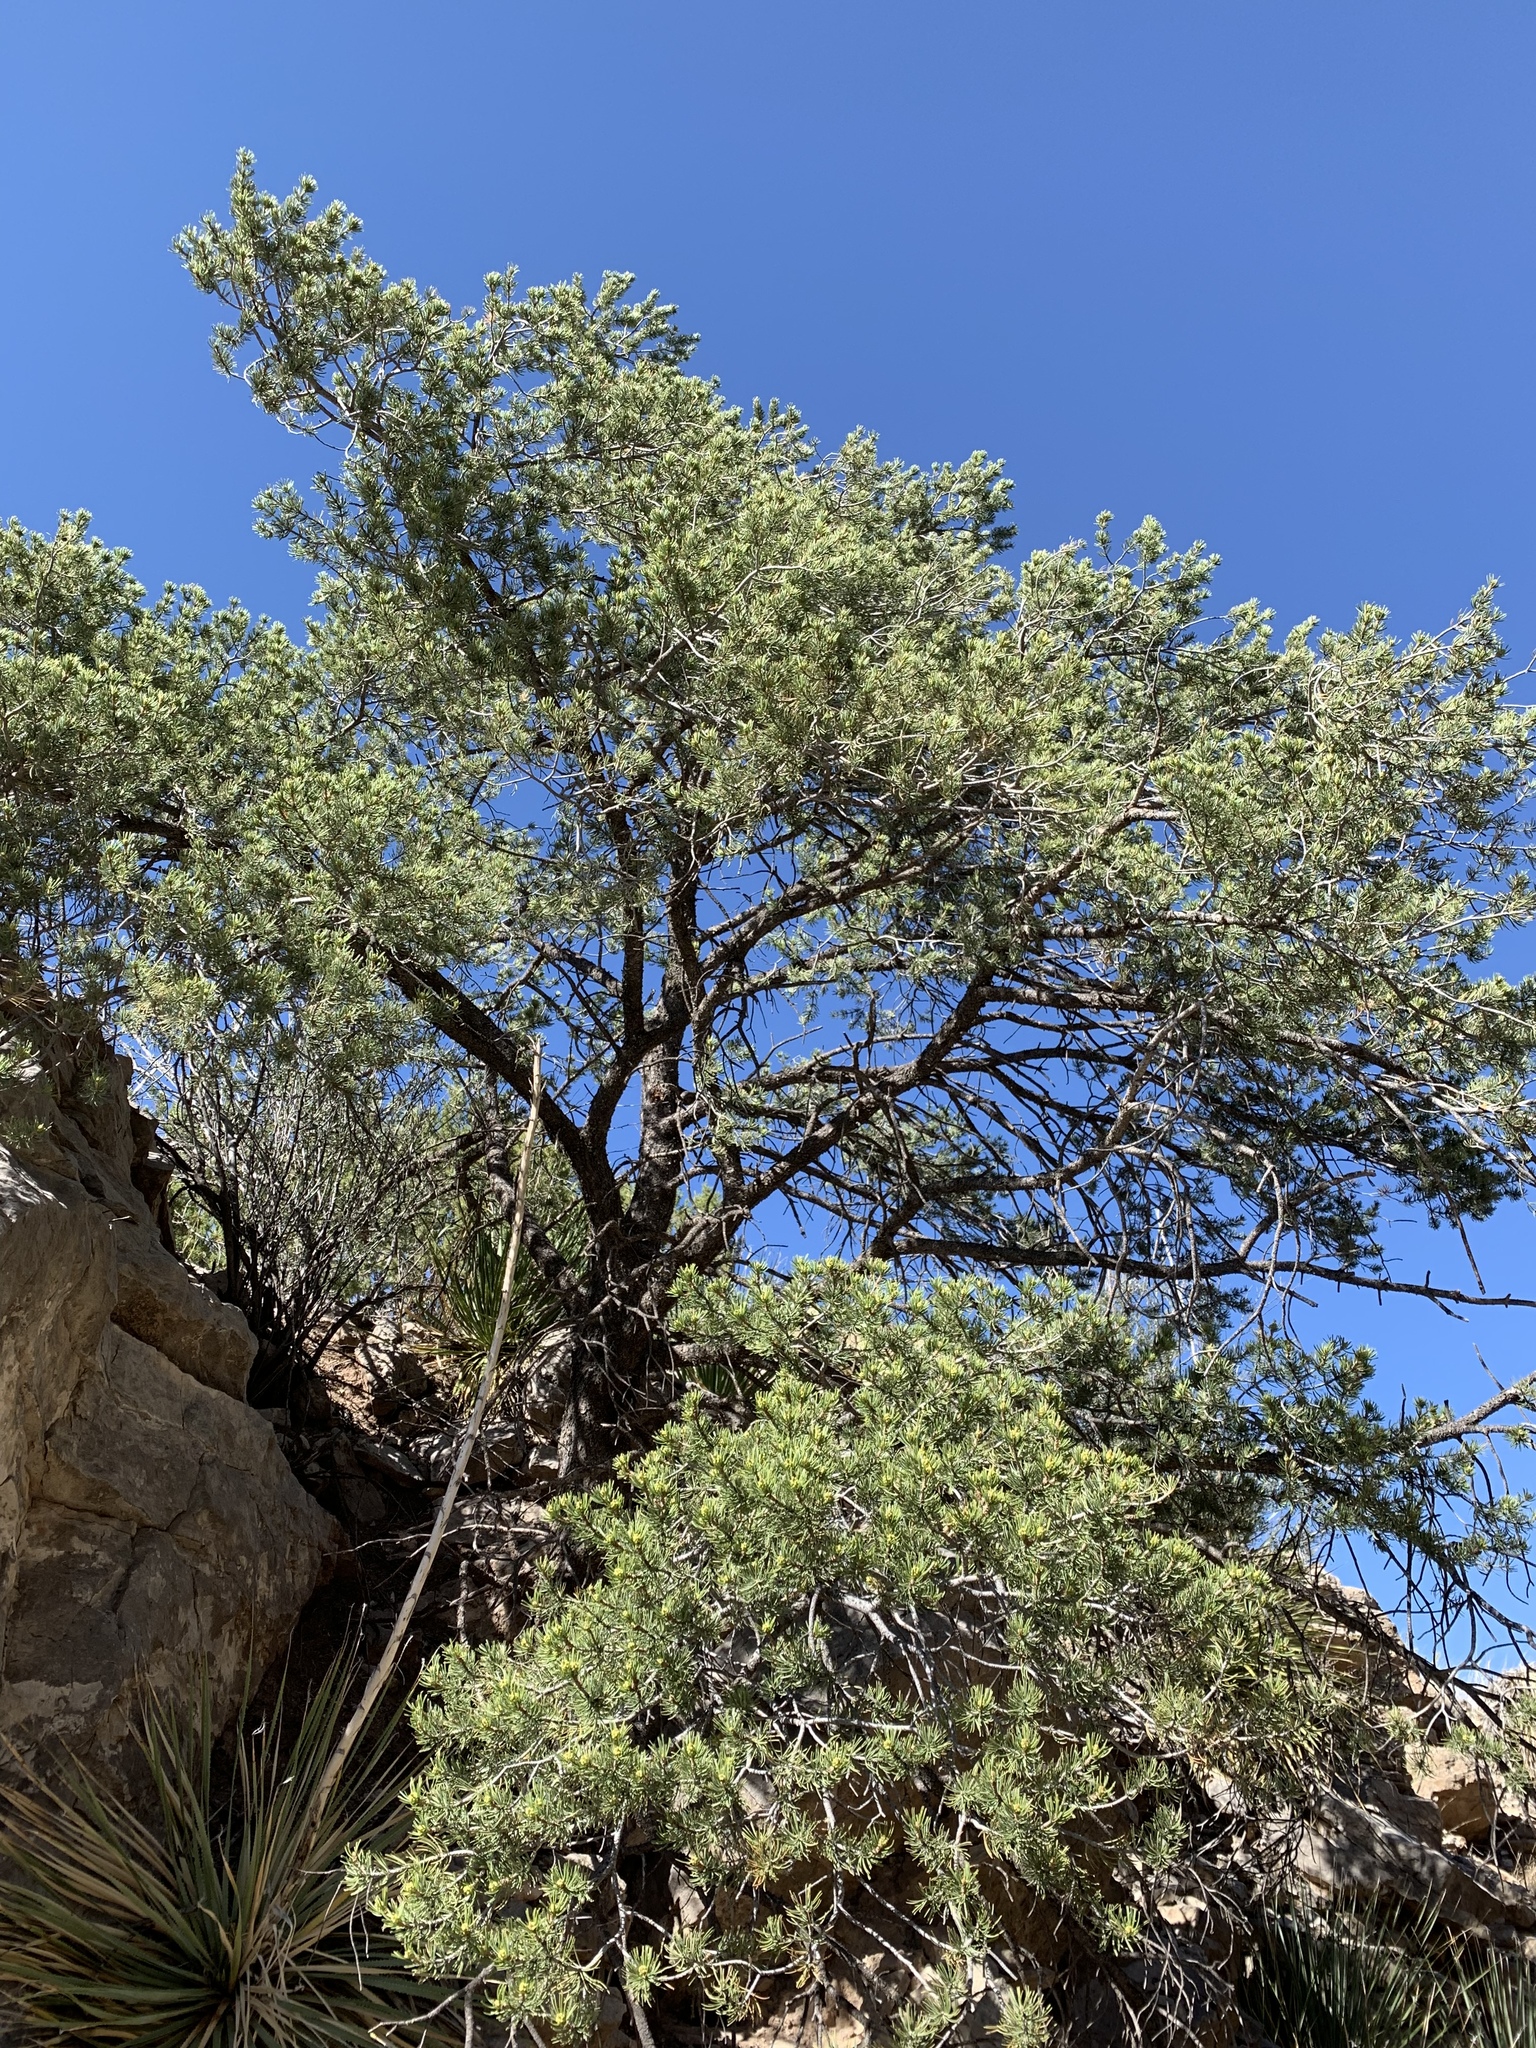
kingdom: Plantae
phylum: Tracheophyta
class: Pinopsida
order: Pinales
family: Pinaceae
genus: Pinus
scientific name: Pinus edulis
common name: Colorado pinyon
